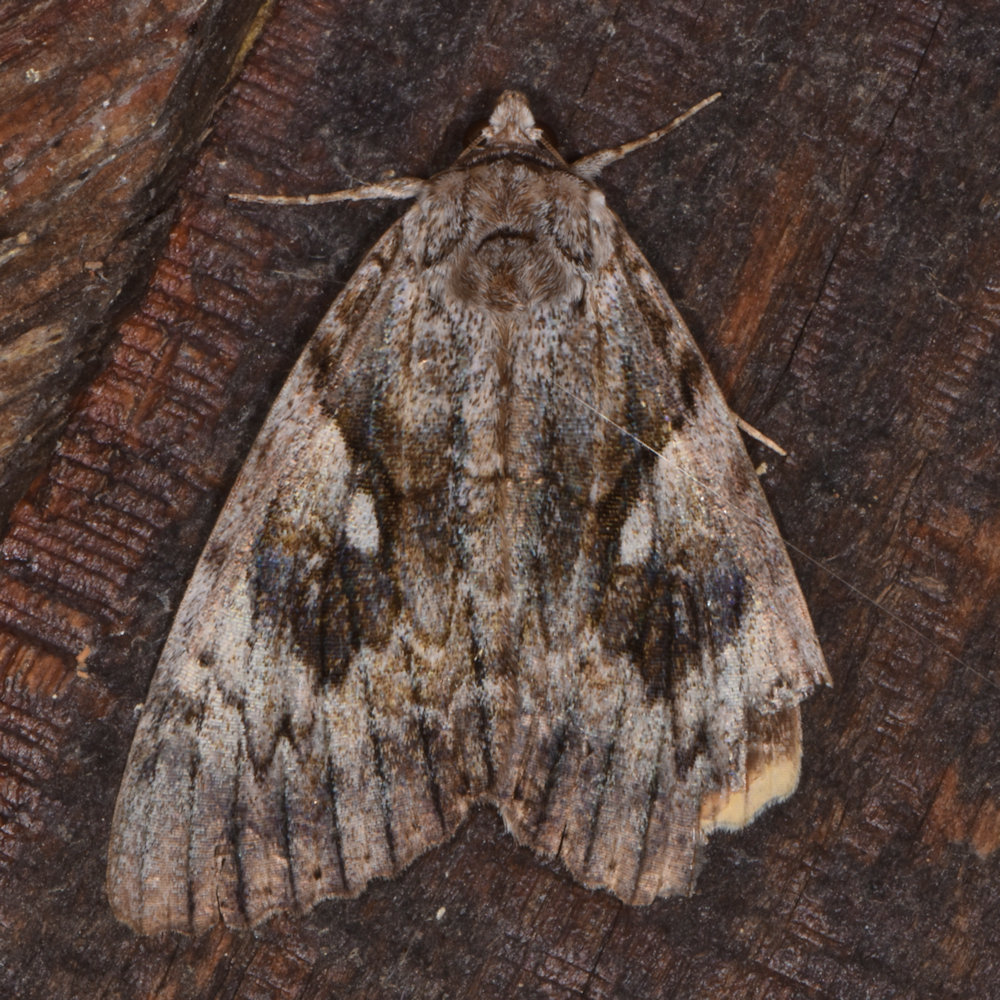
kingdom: Animalia
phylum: Arthropoda
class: Insecta
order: Lepidoptera
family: Erebidae
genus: Catocala
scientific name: Catocala cerogama
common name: Yellow banded underwing
